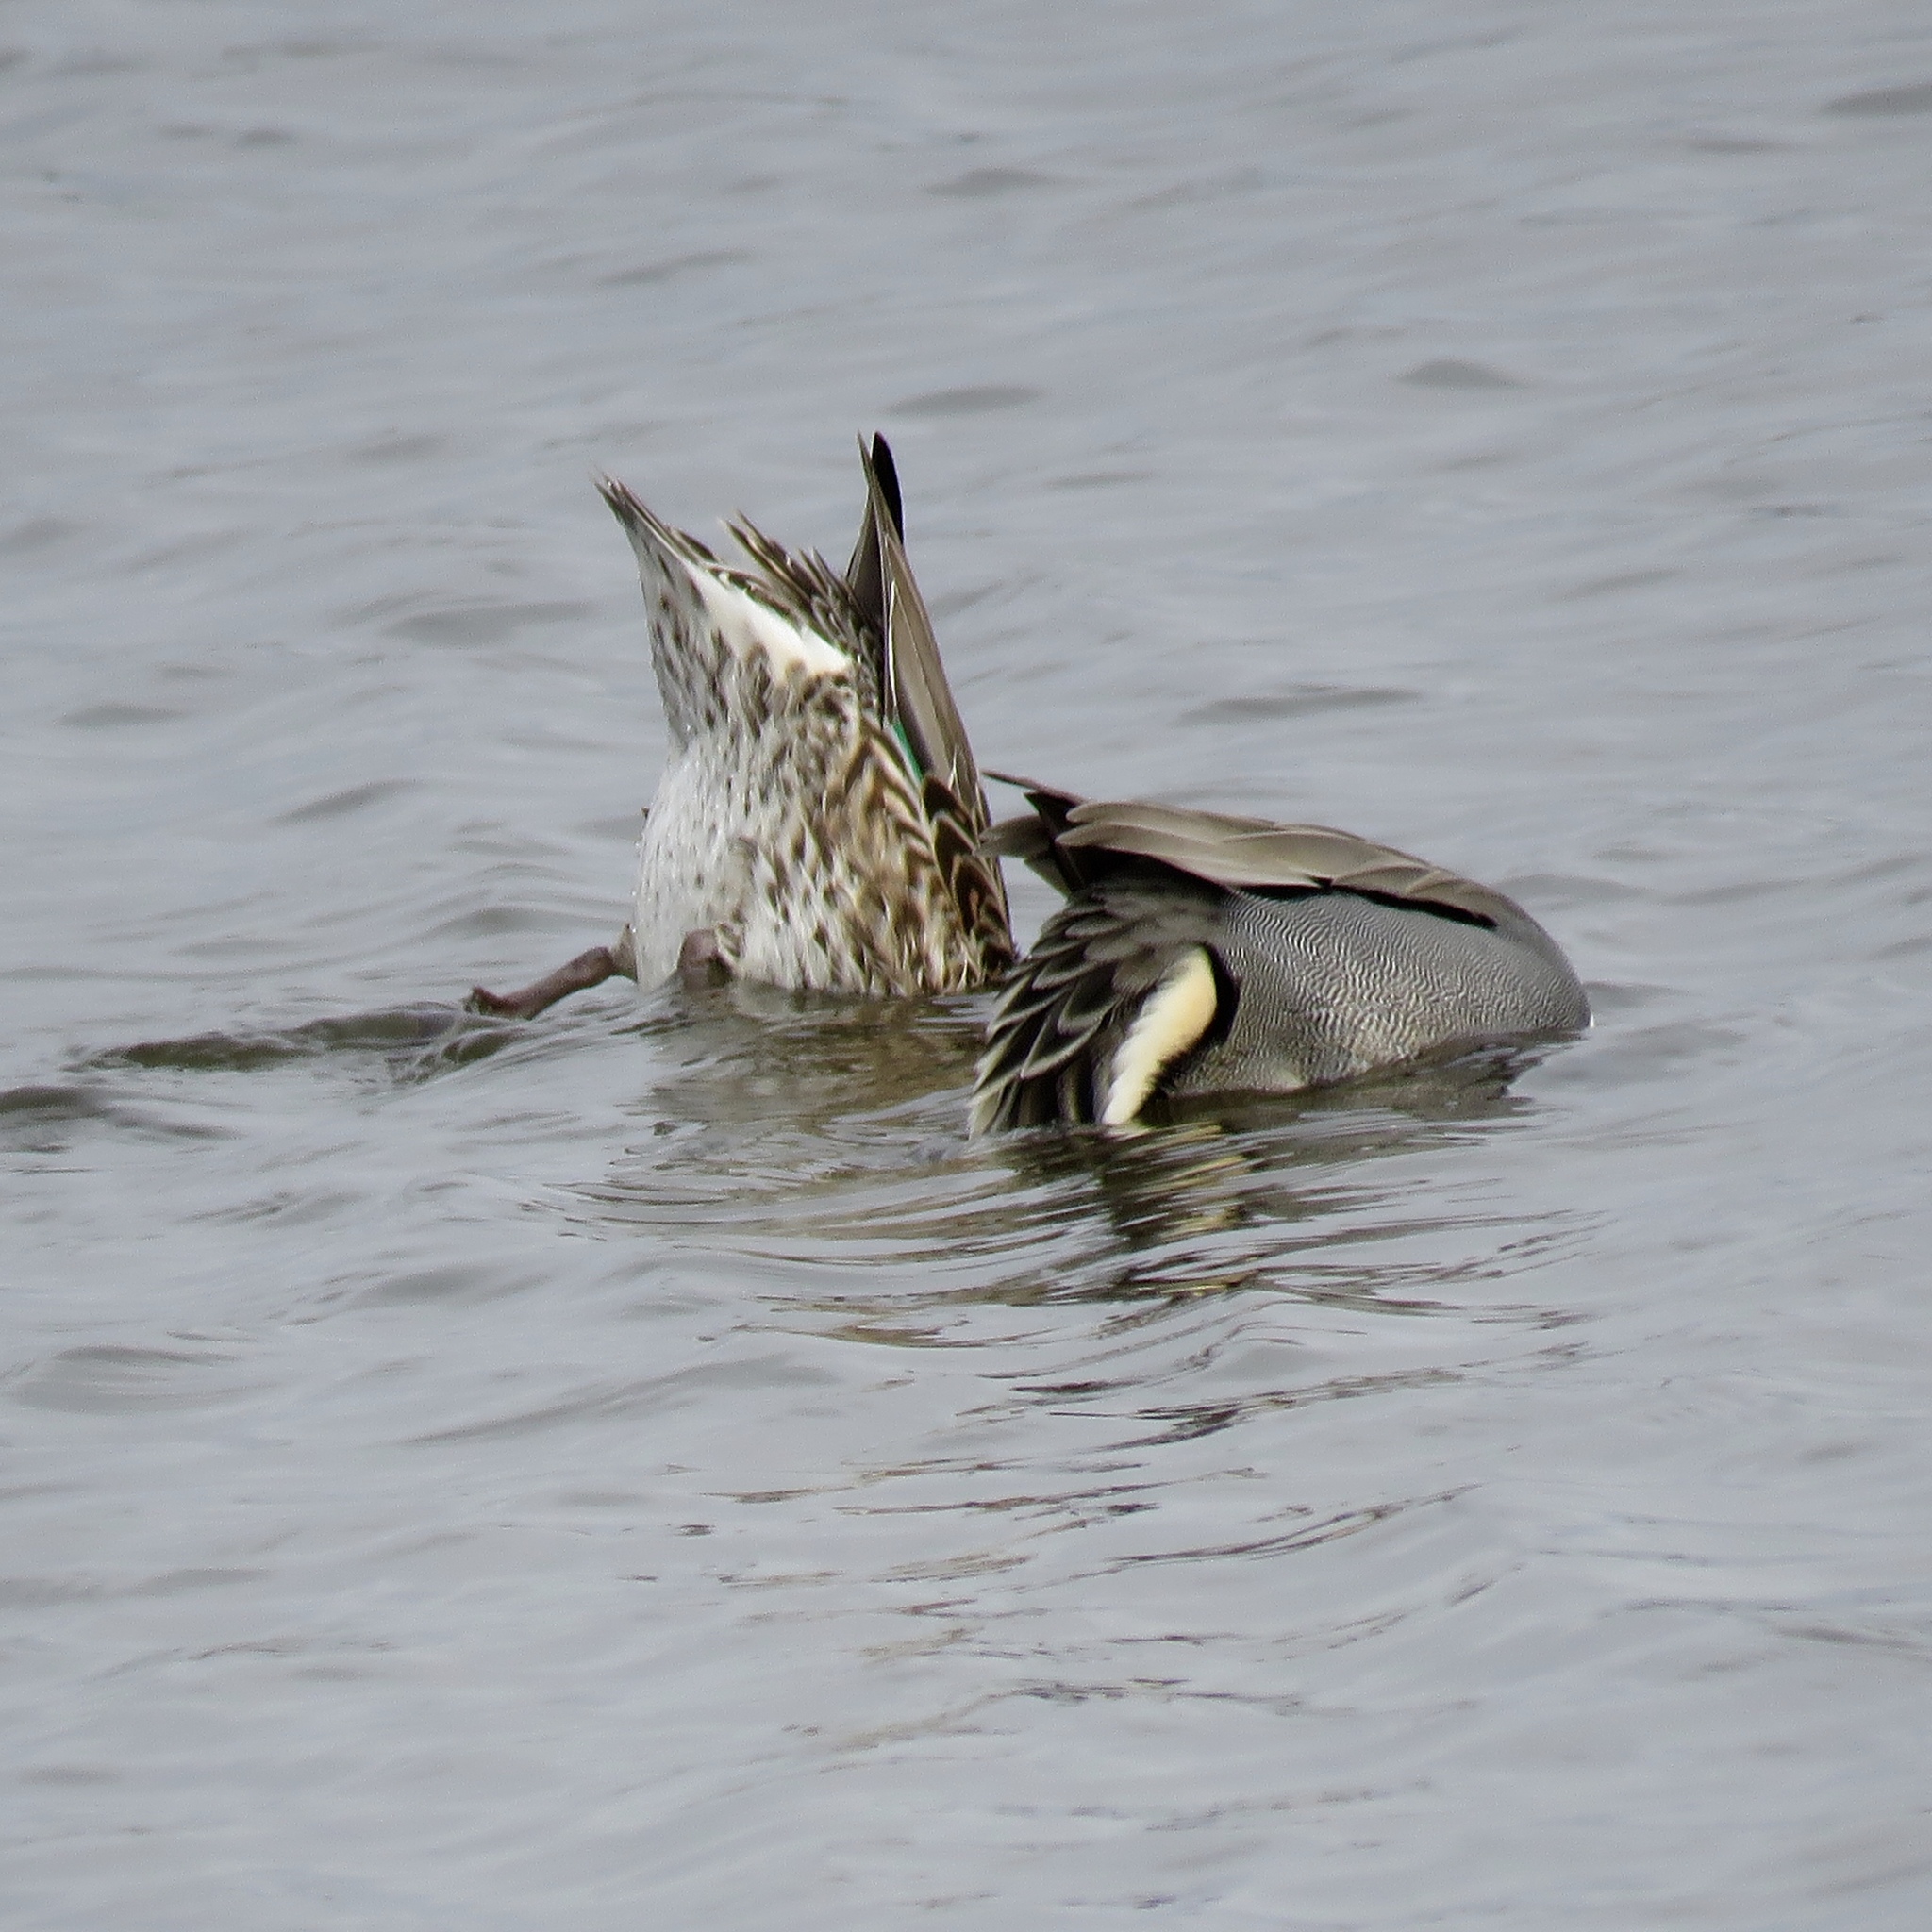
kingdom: Animalia
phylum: Chordata
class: Aves
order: Anseriformes
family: Anatidae
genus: Anas
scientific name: Anas crecca
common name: Eurasian teal
